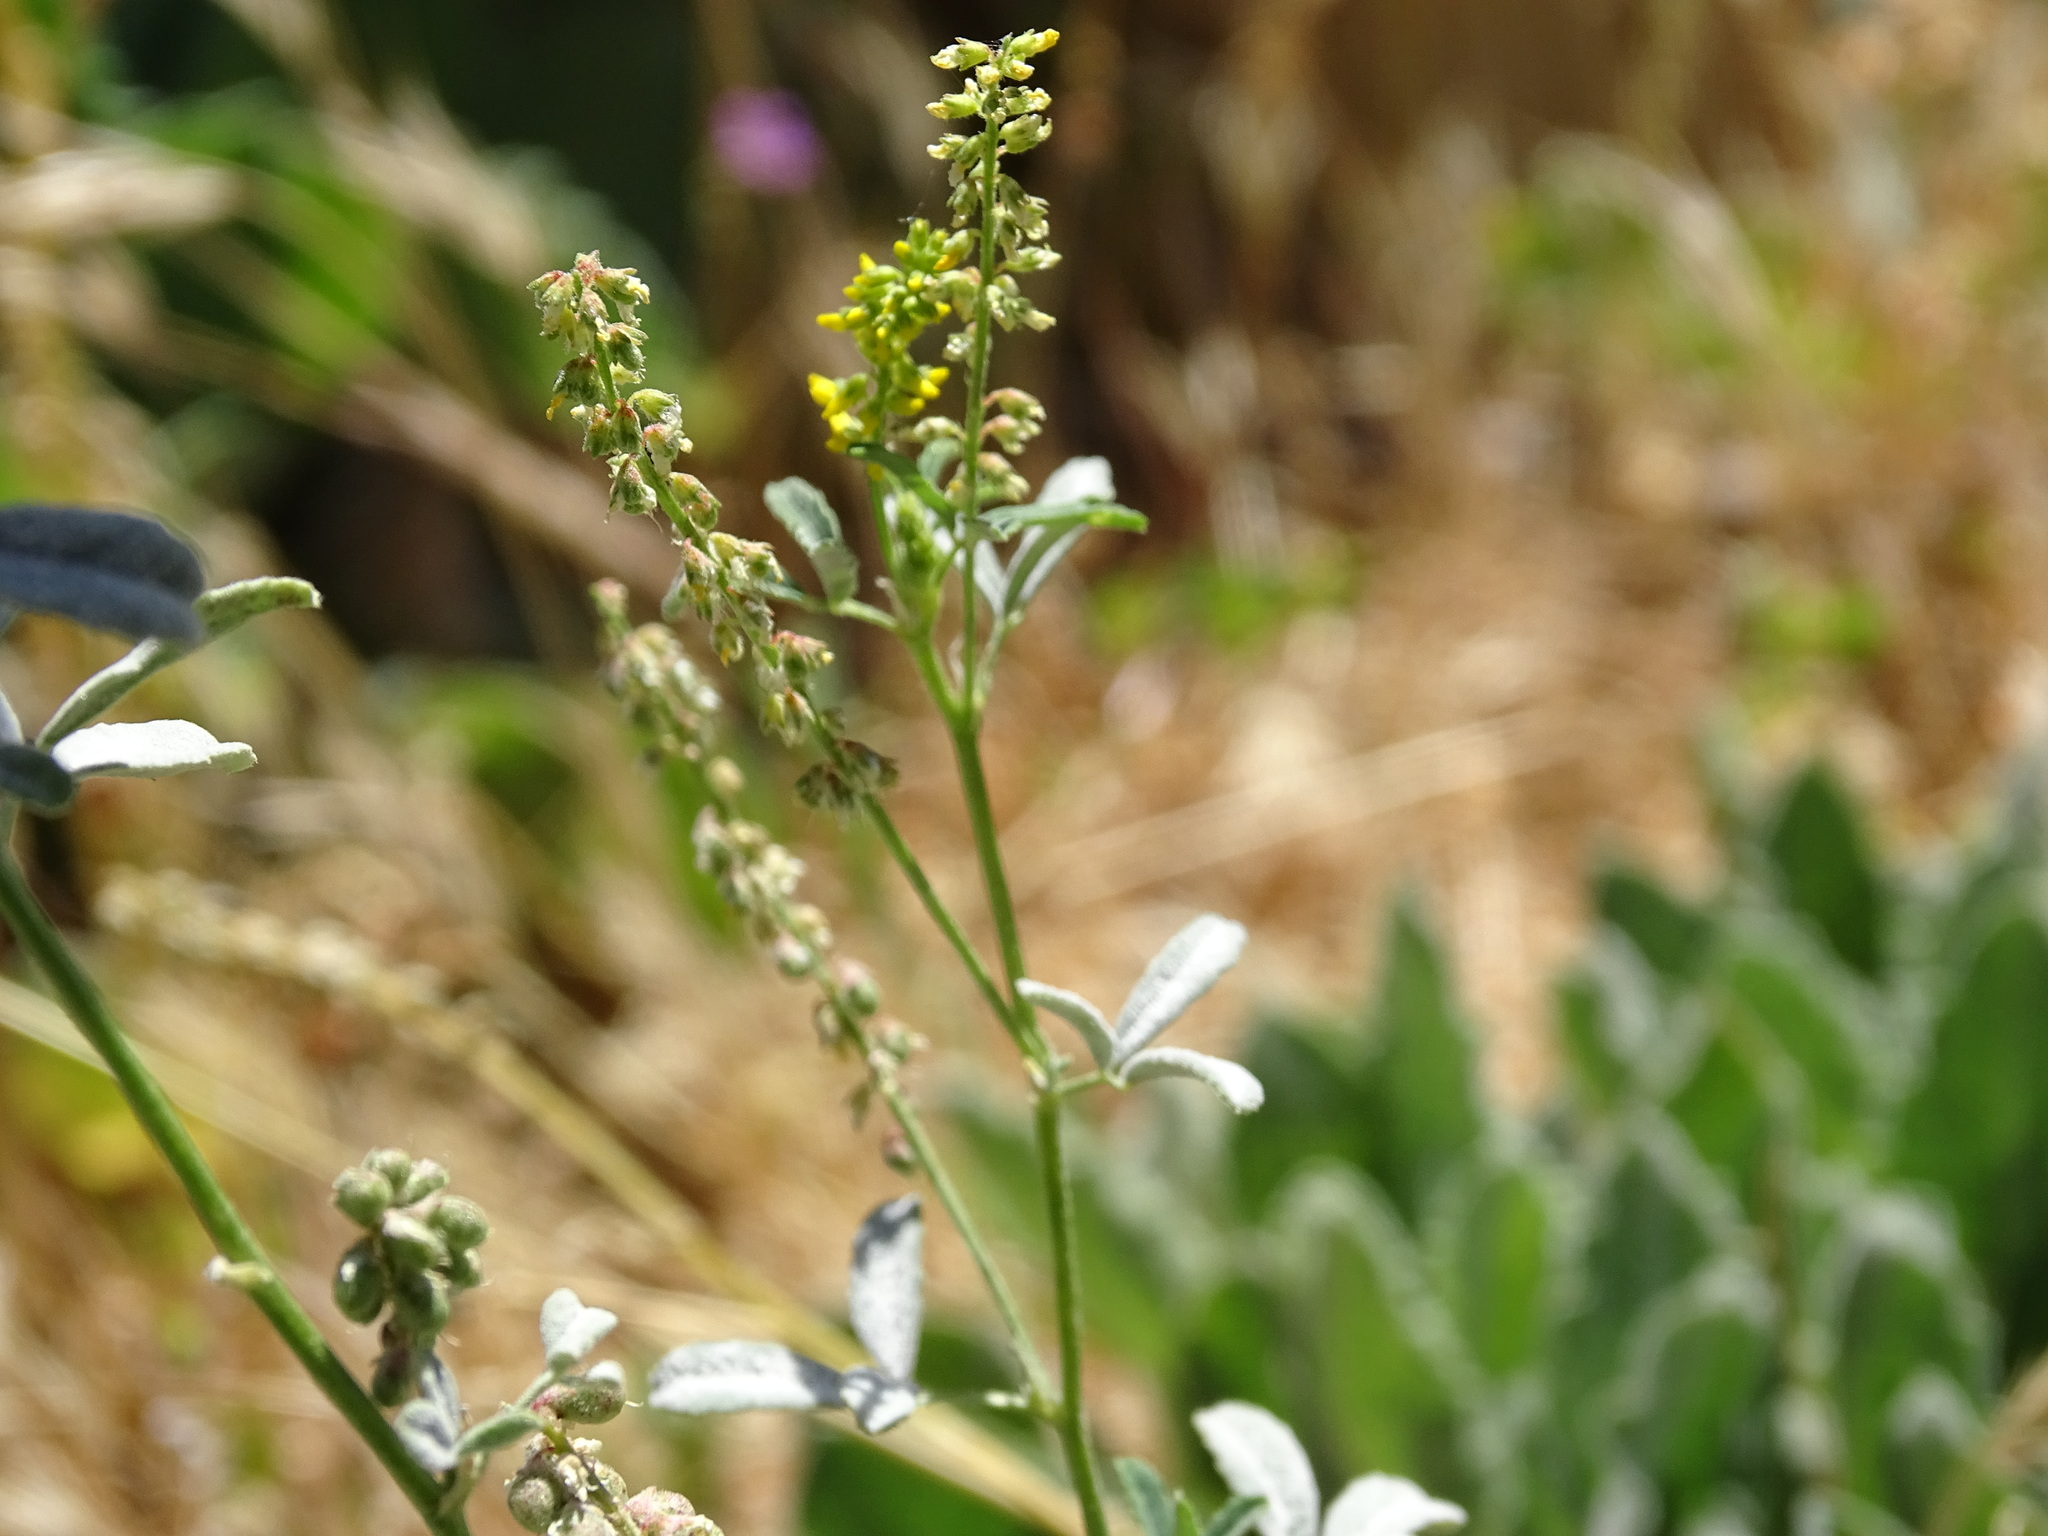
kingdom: Plantae
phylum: Tracheophyta
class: Magnoliopsida
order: Fabales
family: Fabaceae
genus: Melilotus
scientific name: Melilotus indicus
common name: Small melilot
